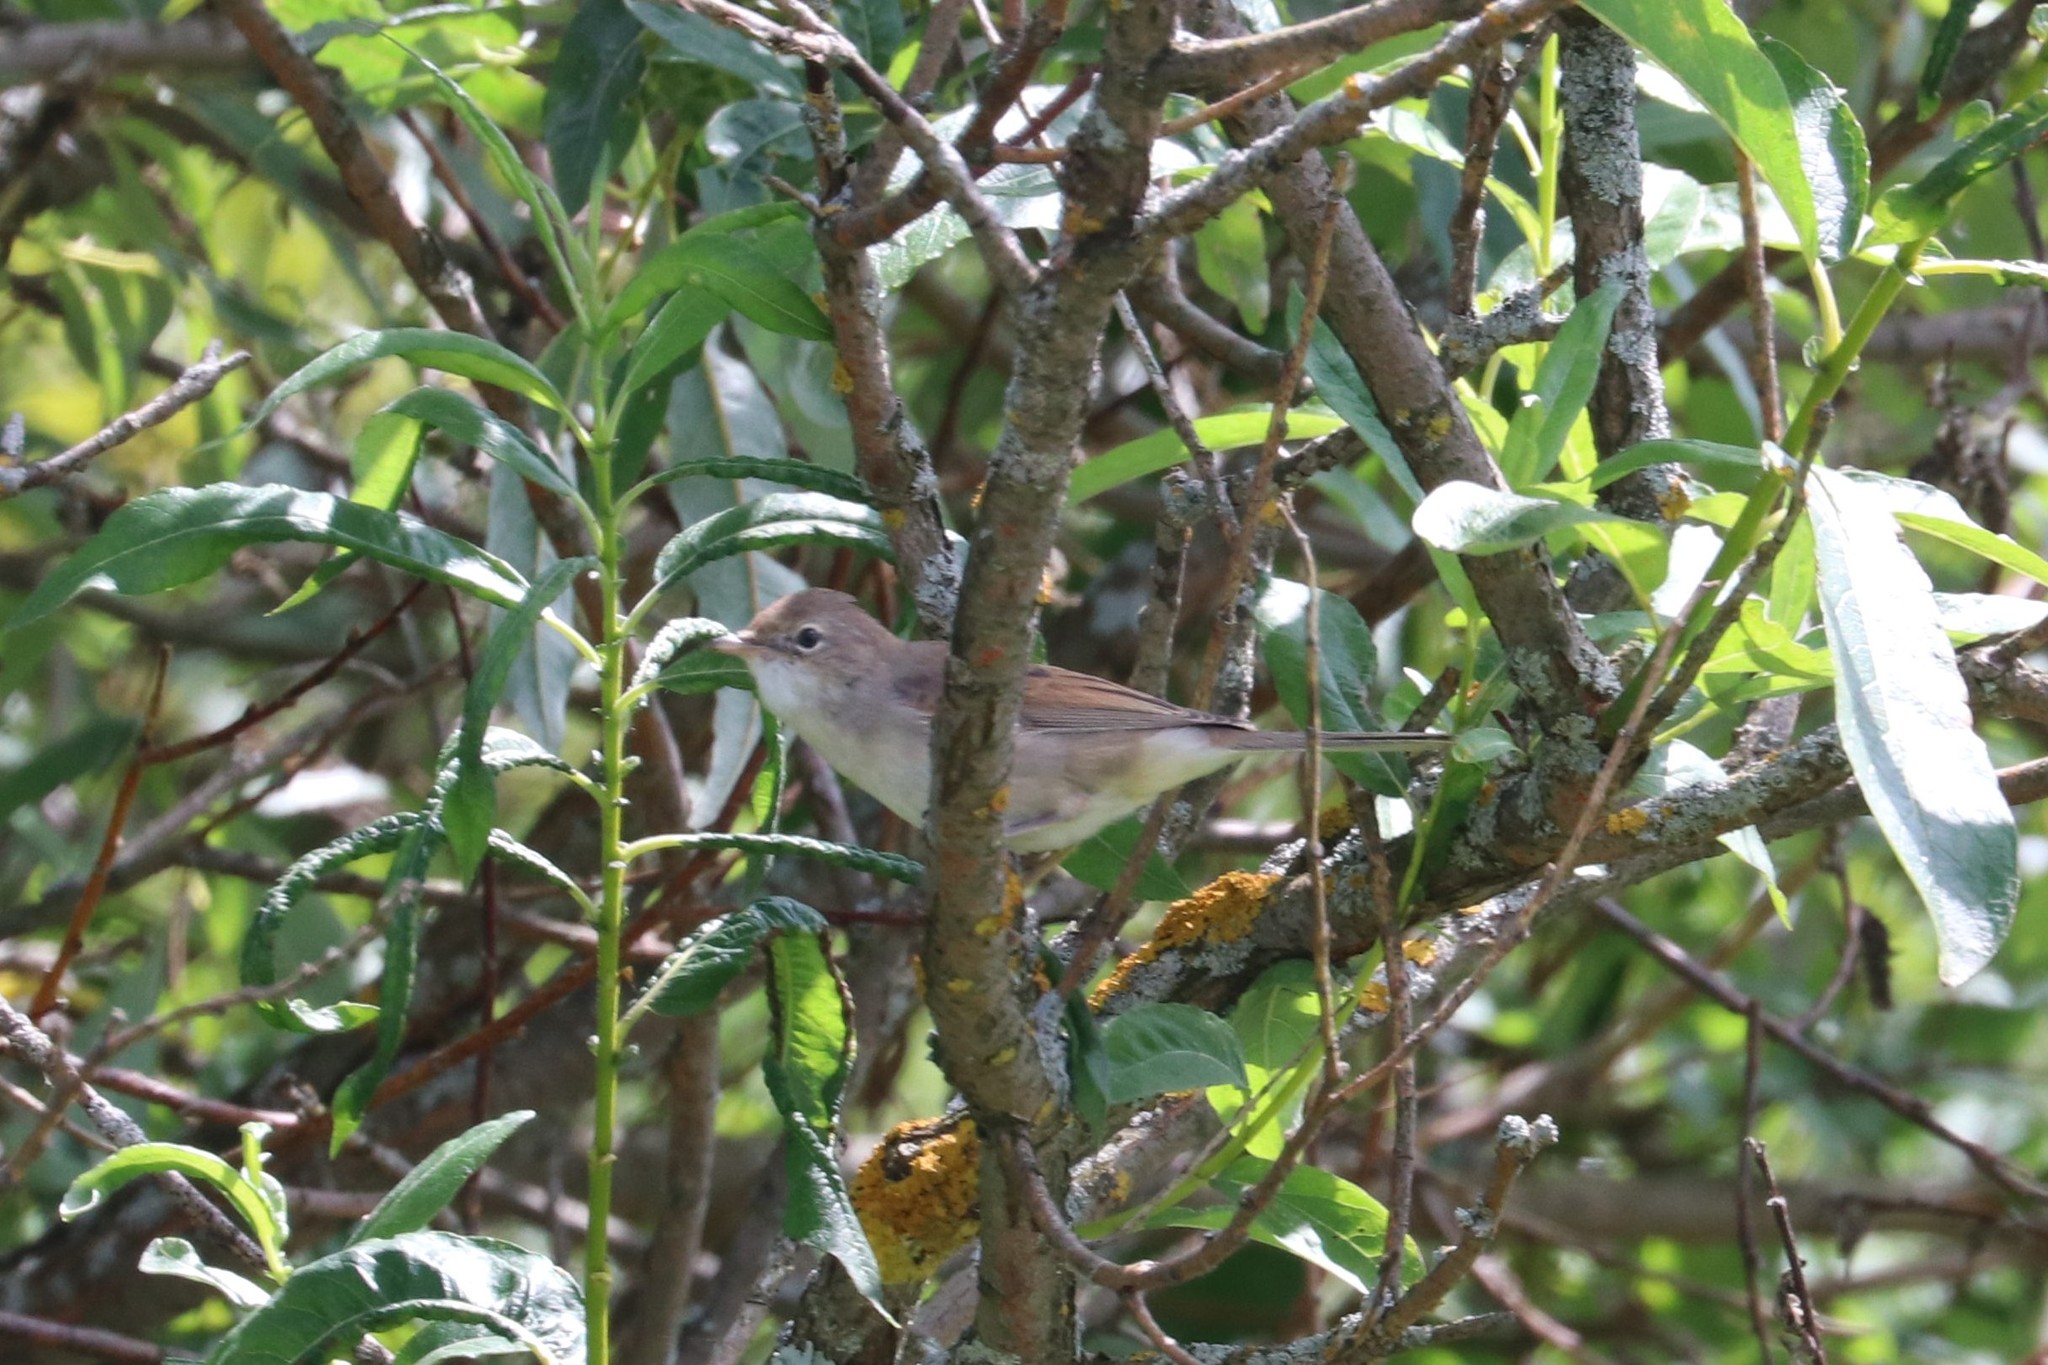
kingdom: Animalia
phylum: Chordata
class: Aves
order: Passeriformes
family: Sylviidae
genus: Sylvia
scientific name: Sylvia communis
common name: Common whitethroat
